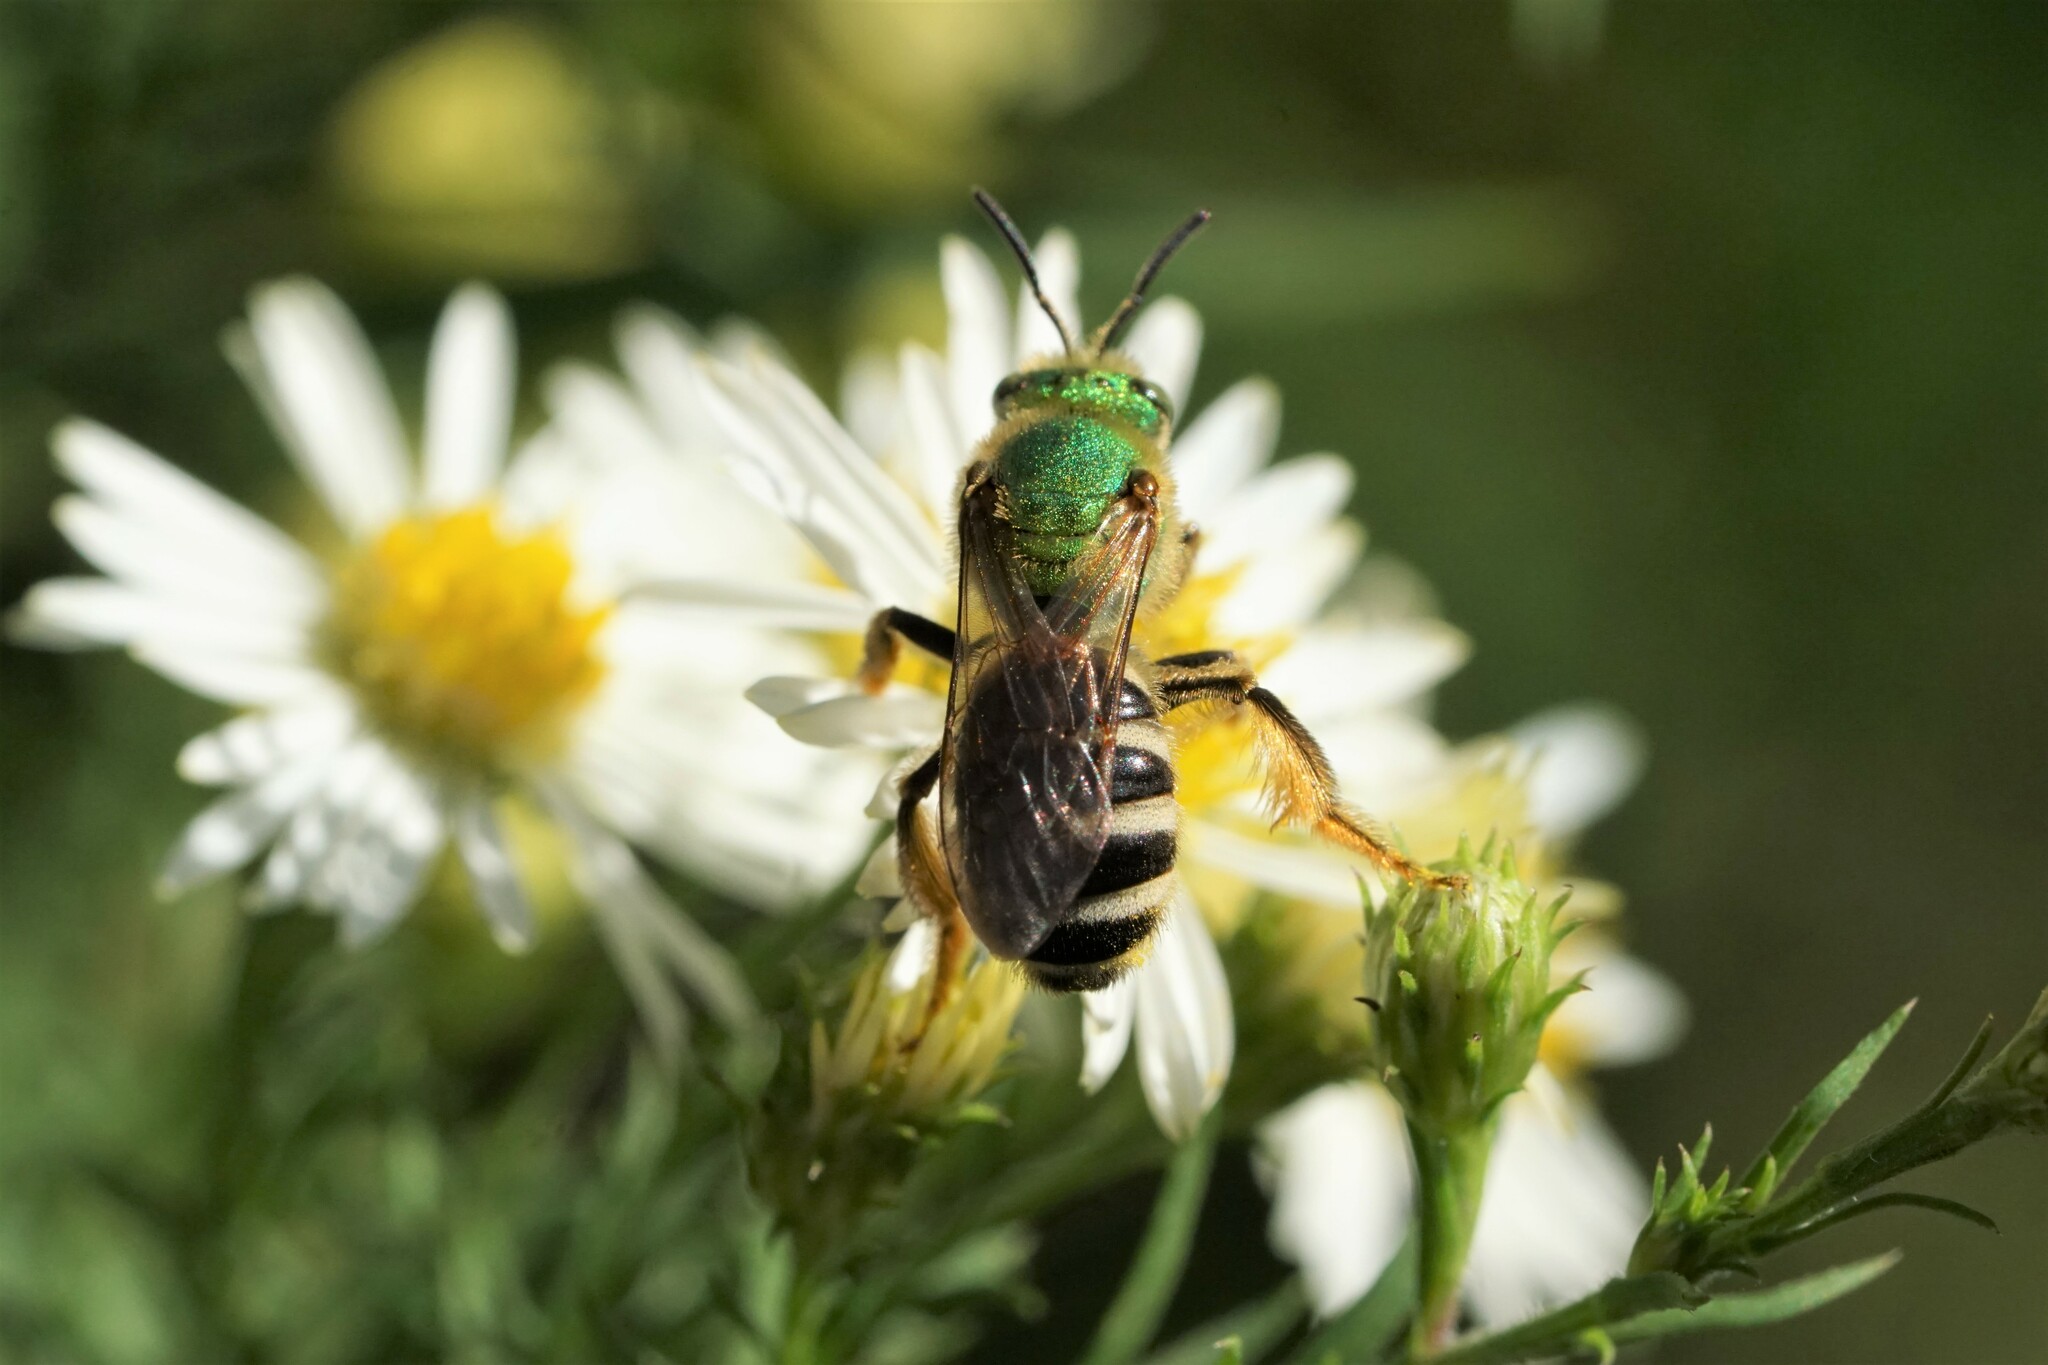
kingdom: Animalia
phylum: Arthropoda
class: Insecta
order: Hymenoptera
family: Halictidae
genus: Agapostemon
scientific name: Agapostemon virescens
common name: Bicolored striped sweat bee
